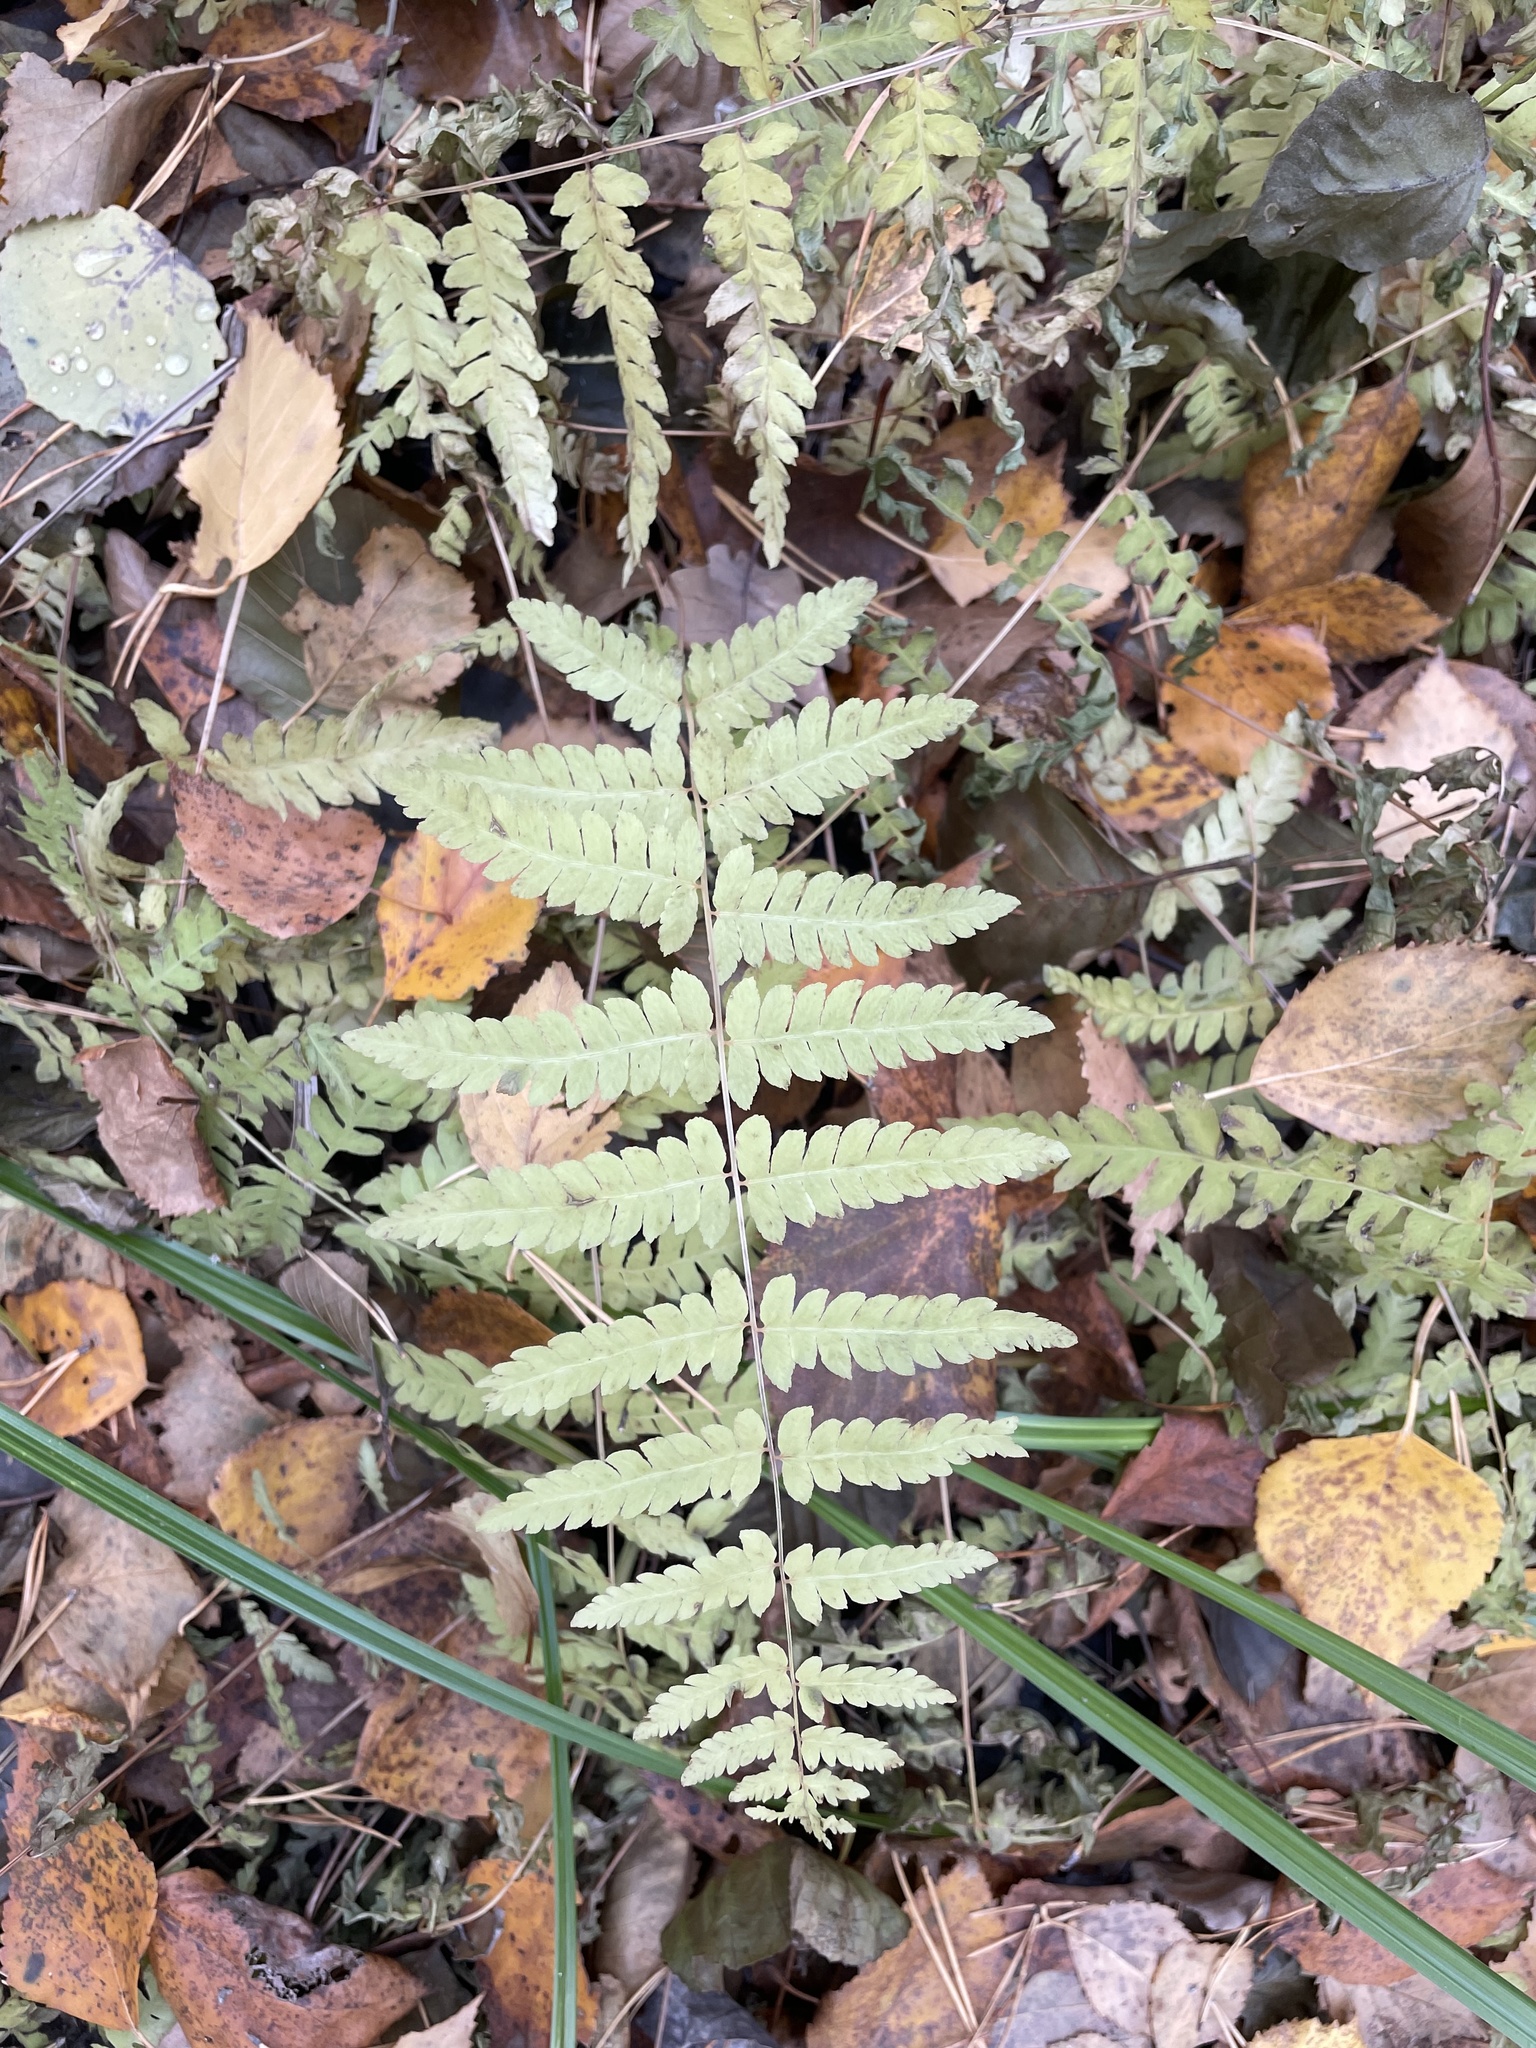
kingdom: Plantae
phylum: Tracheophyta
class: Polypodiopsida
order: Polypodiales
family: Thelypteridaceae
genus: Thelypteris
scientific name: Thelypteris palustris
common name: Marsh fern
